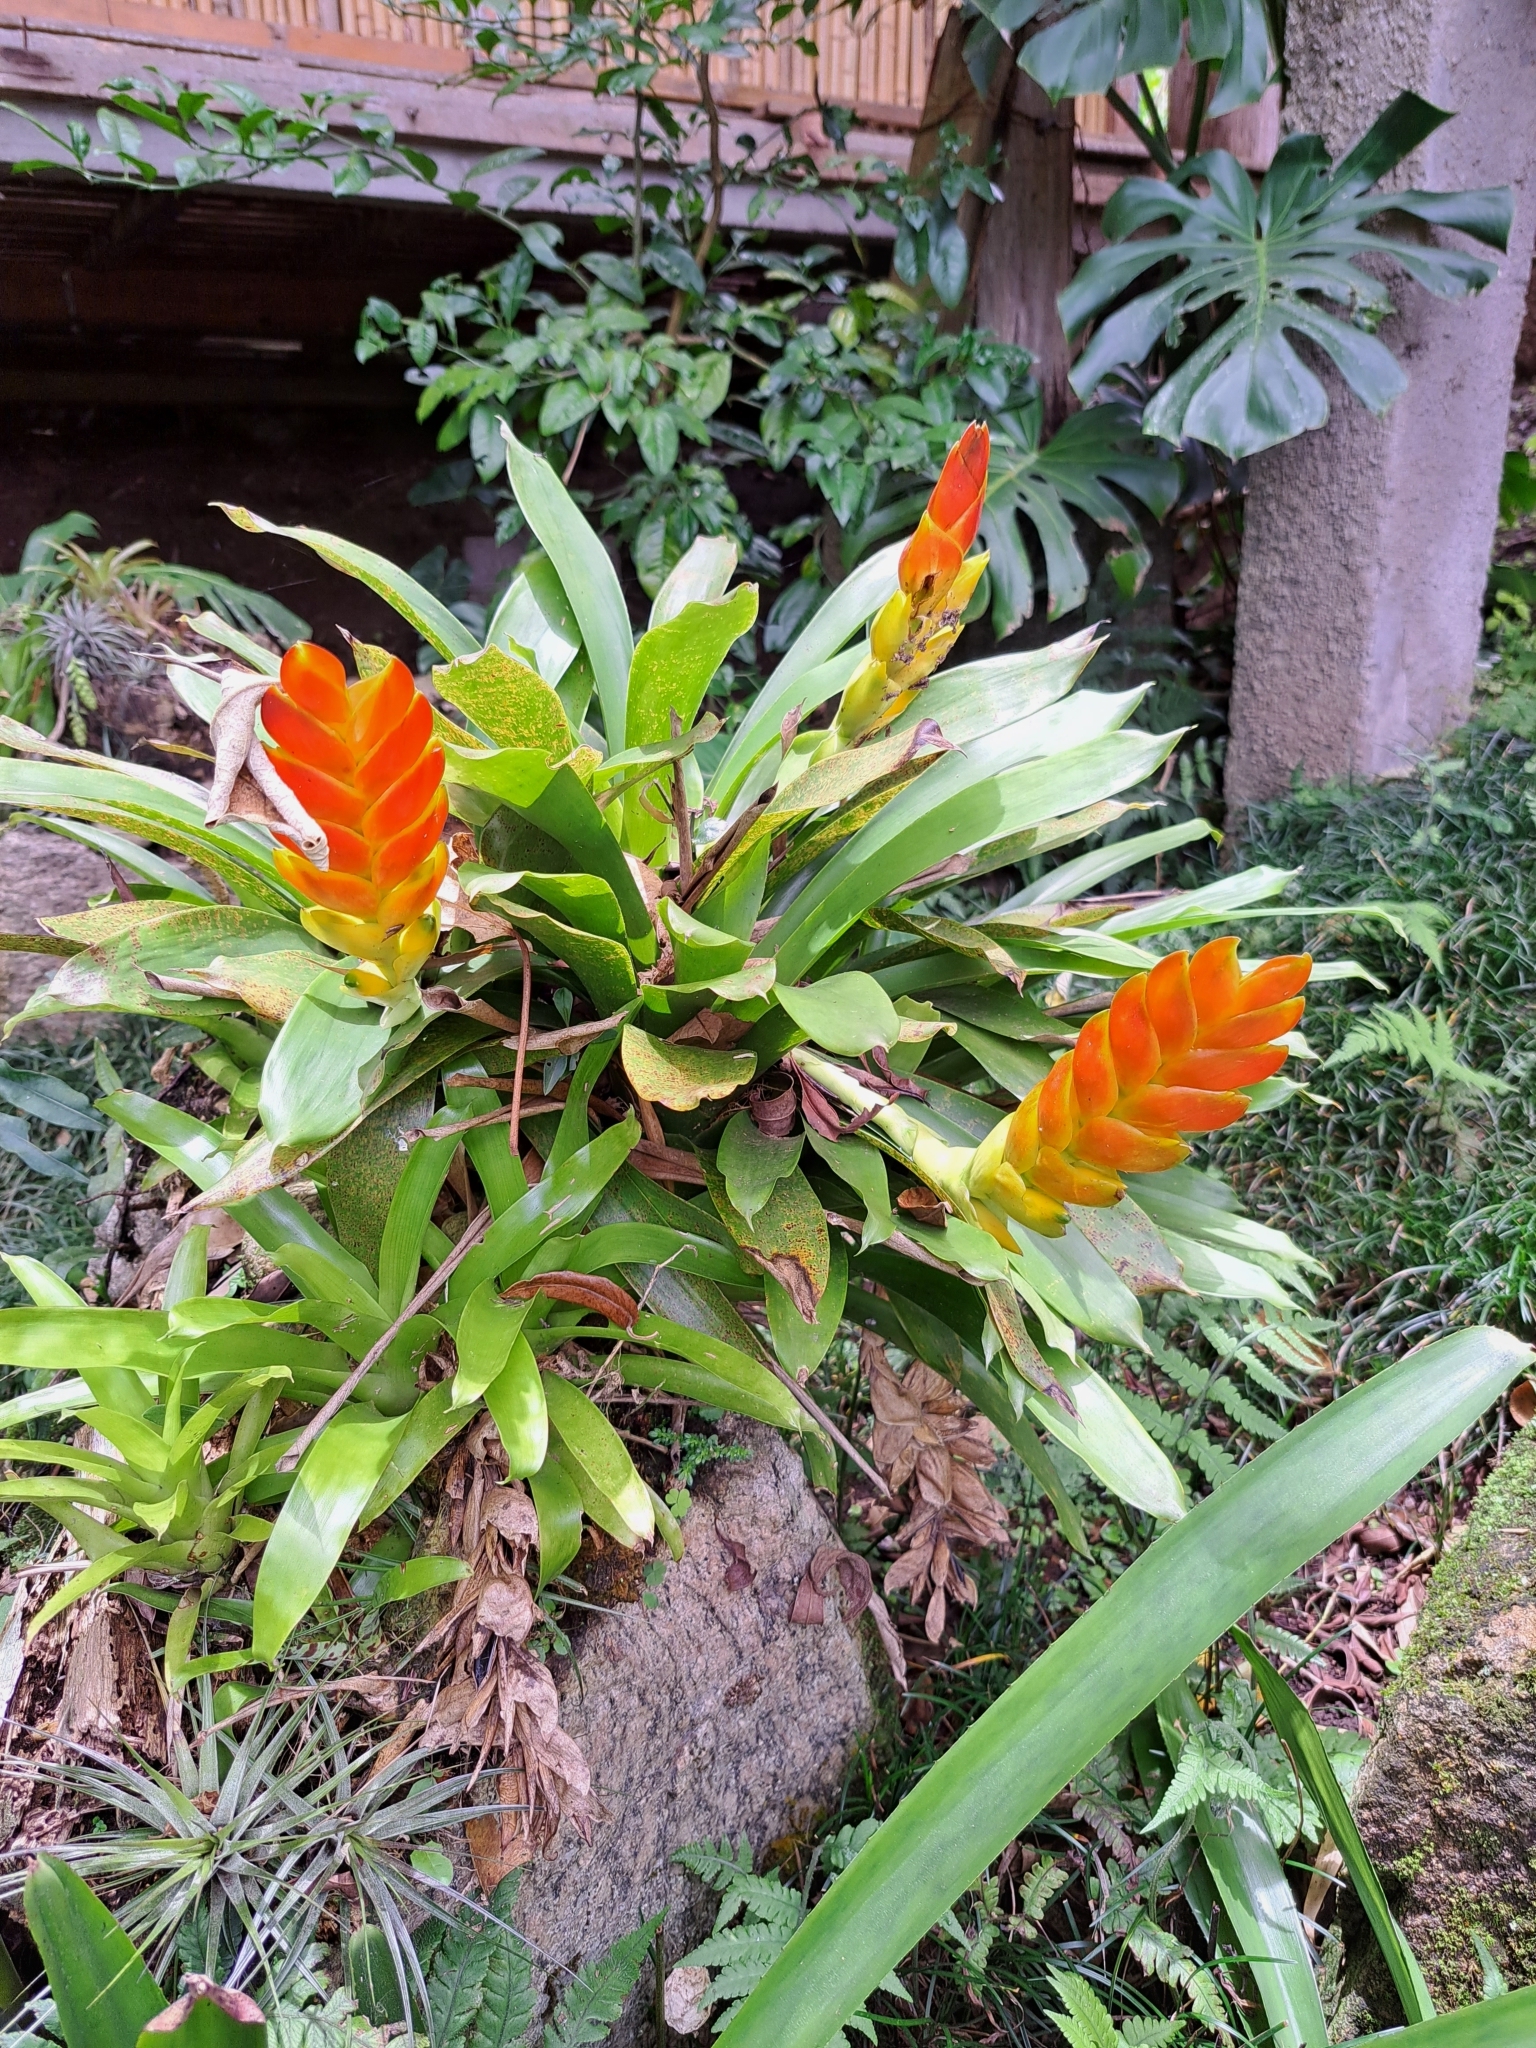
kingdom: Plantae
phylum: Tracheophyta
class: Liliopsida
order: Poales
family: Bromeliaceae
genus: Vriesea
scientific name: Vriesea heterostachys
